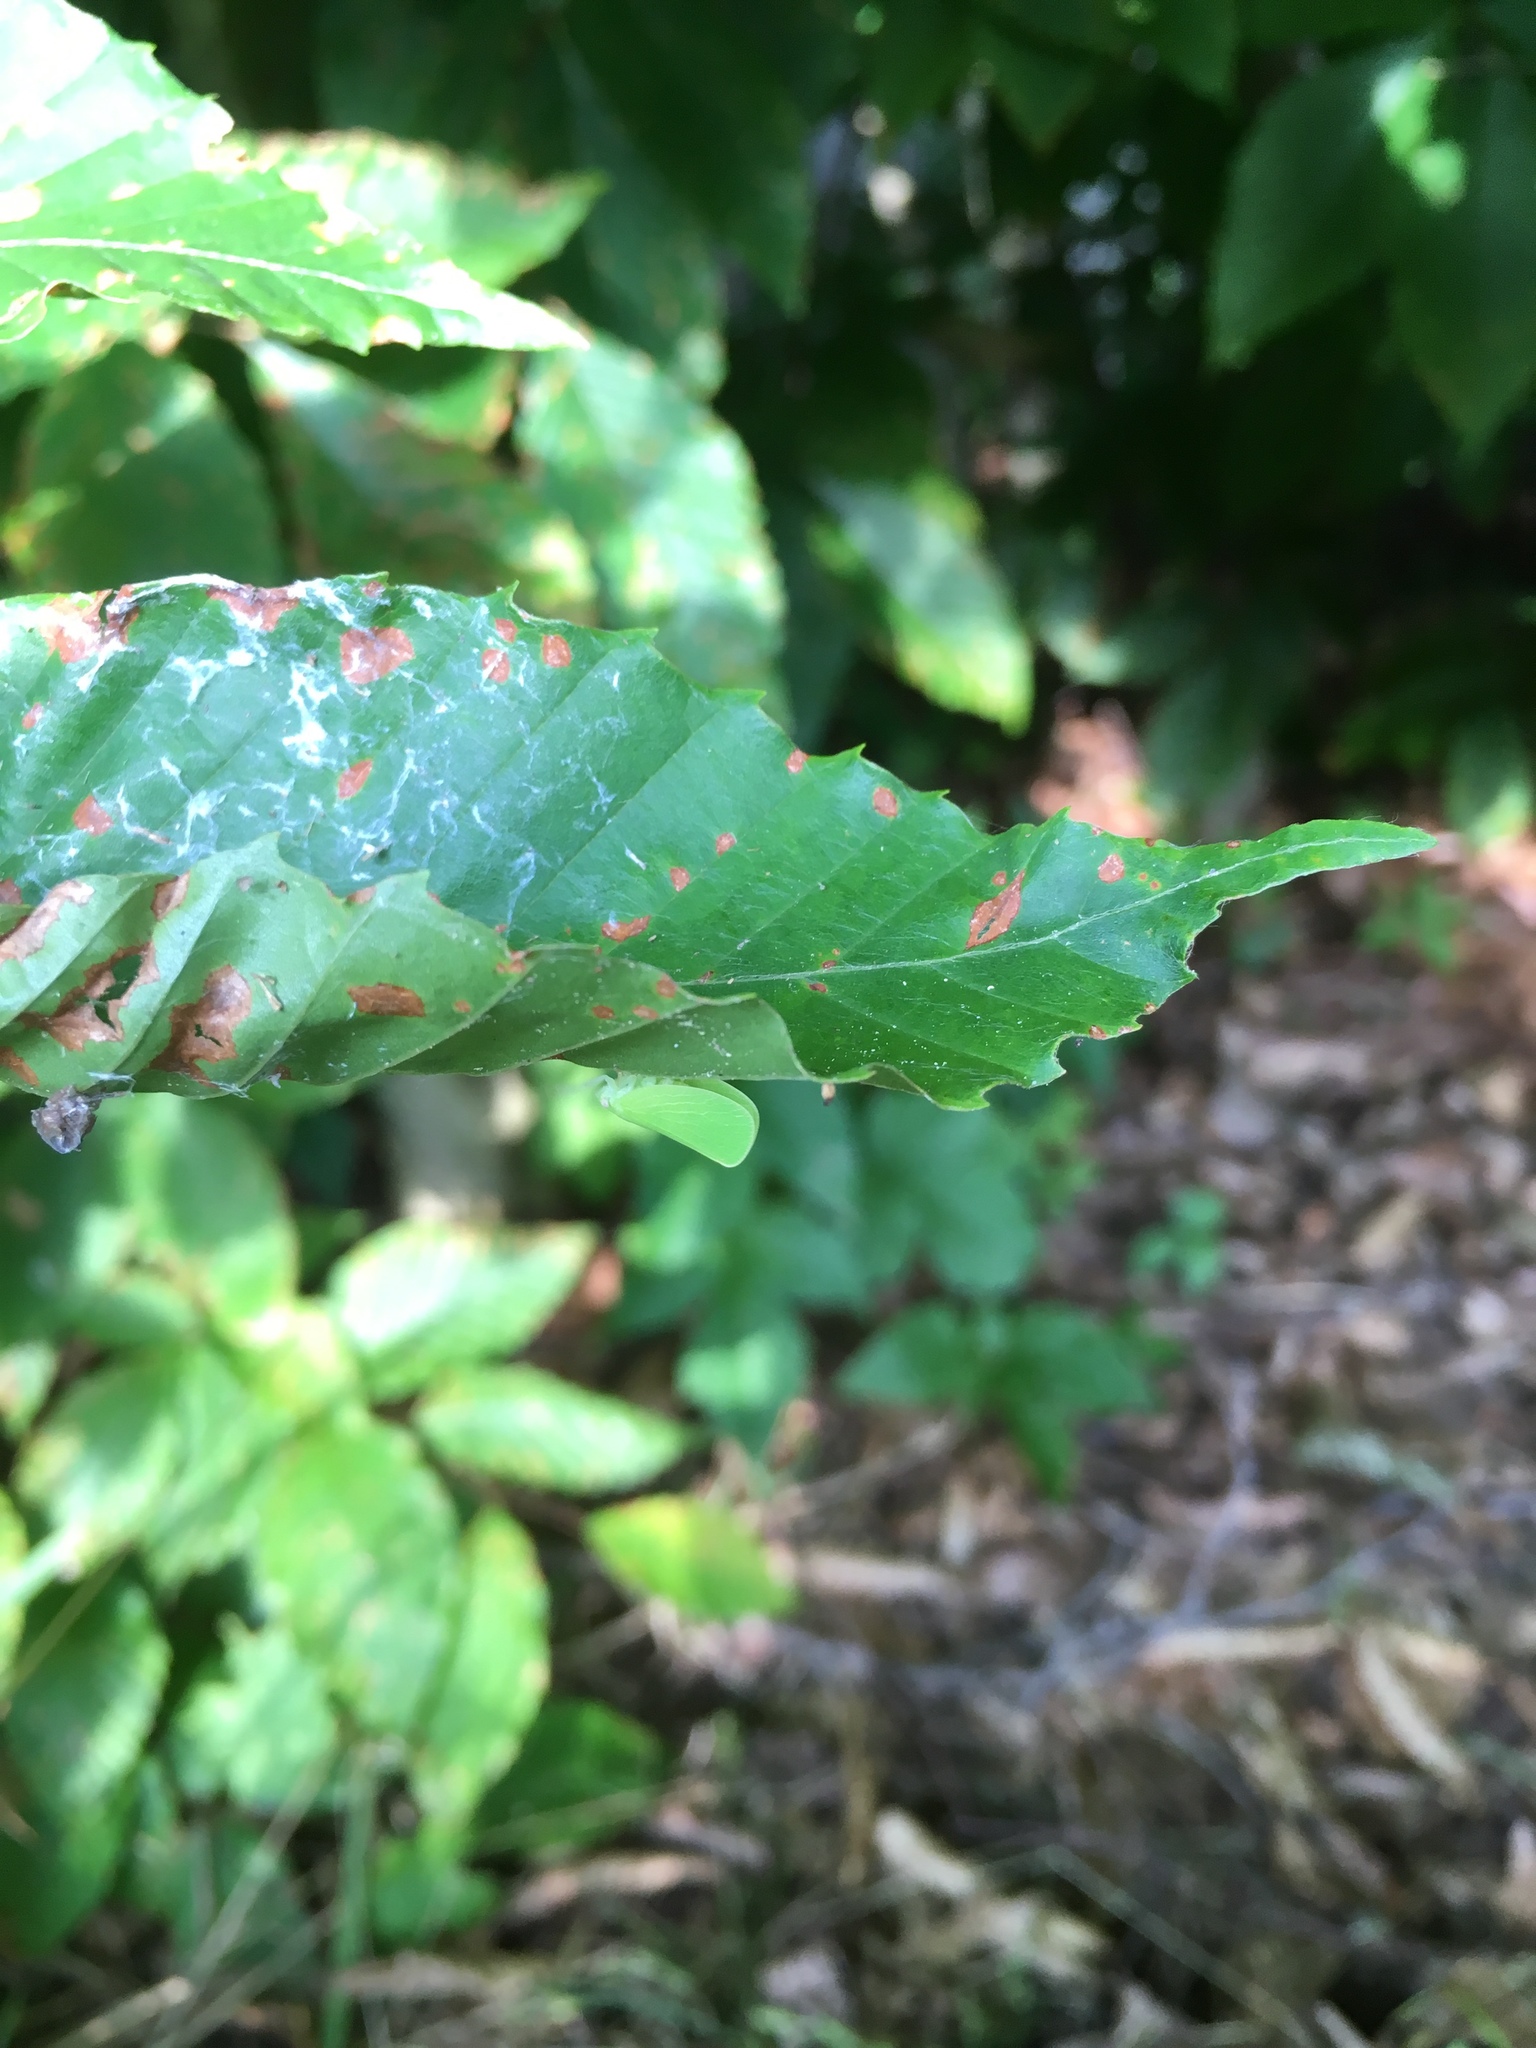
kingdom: Animalia
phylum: Arthropoda
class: Insecta
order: Hemiptera
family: Acanaloniidae
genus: Acanalonia
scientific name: Acanalonia conica
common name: Green cone-headed planthopper
